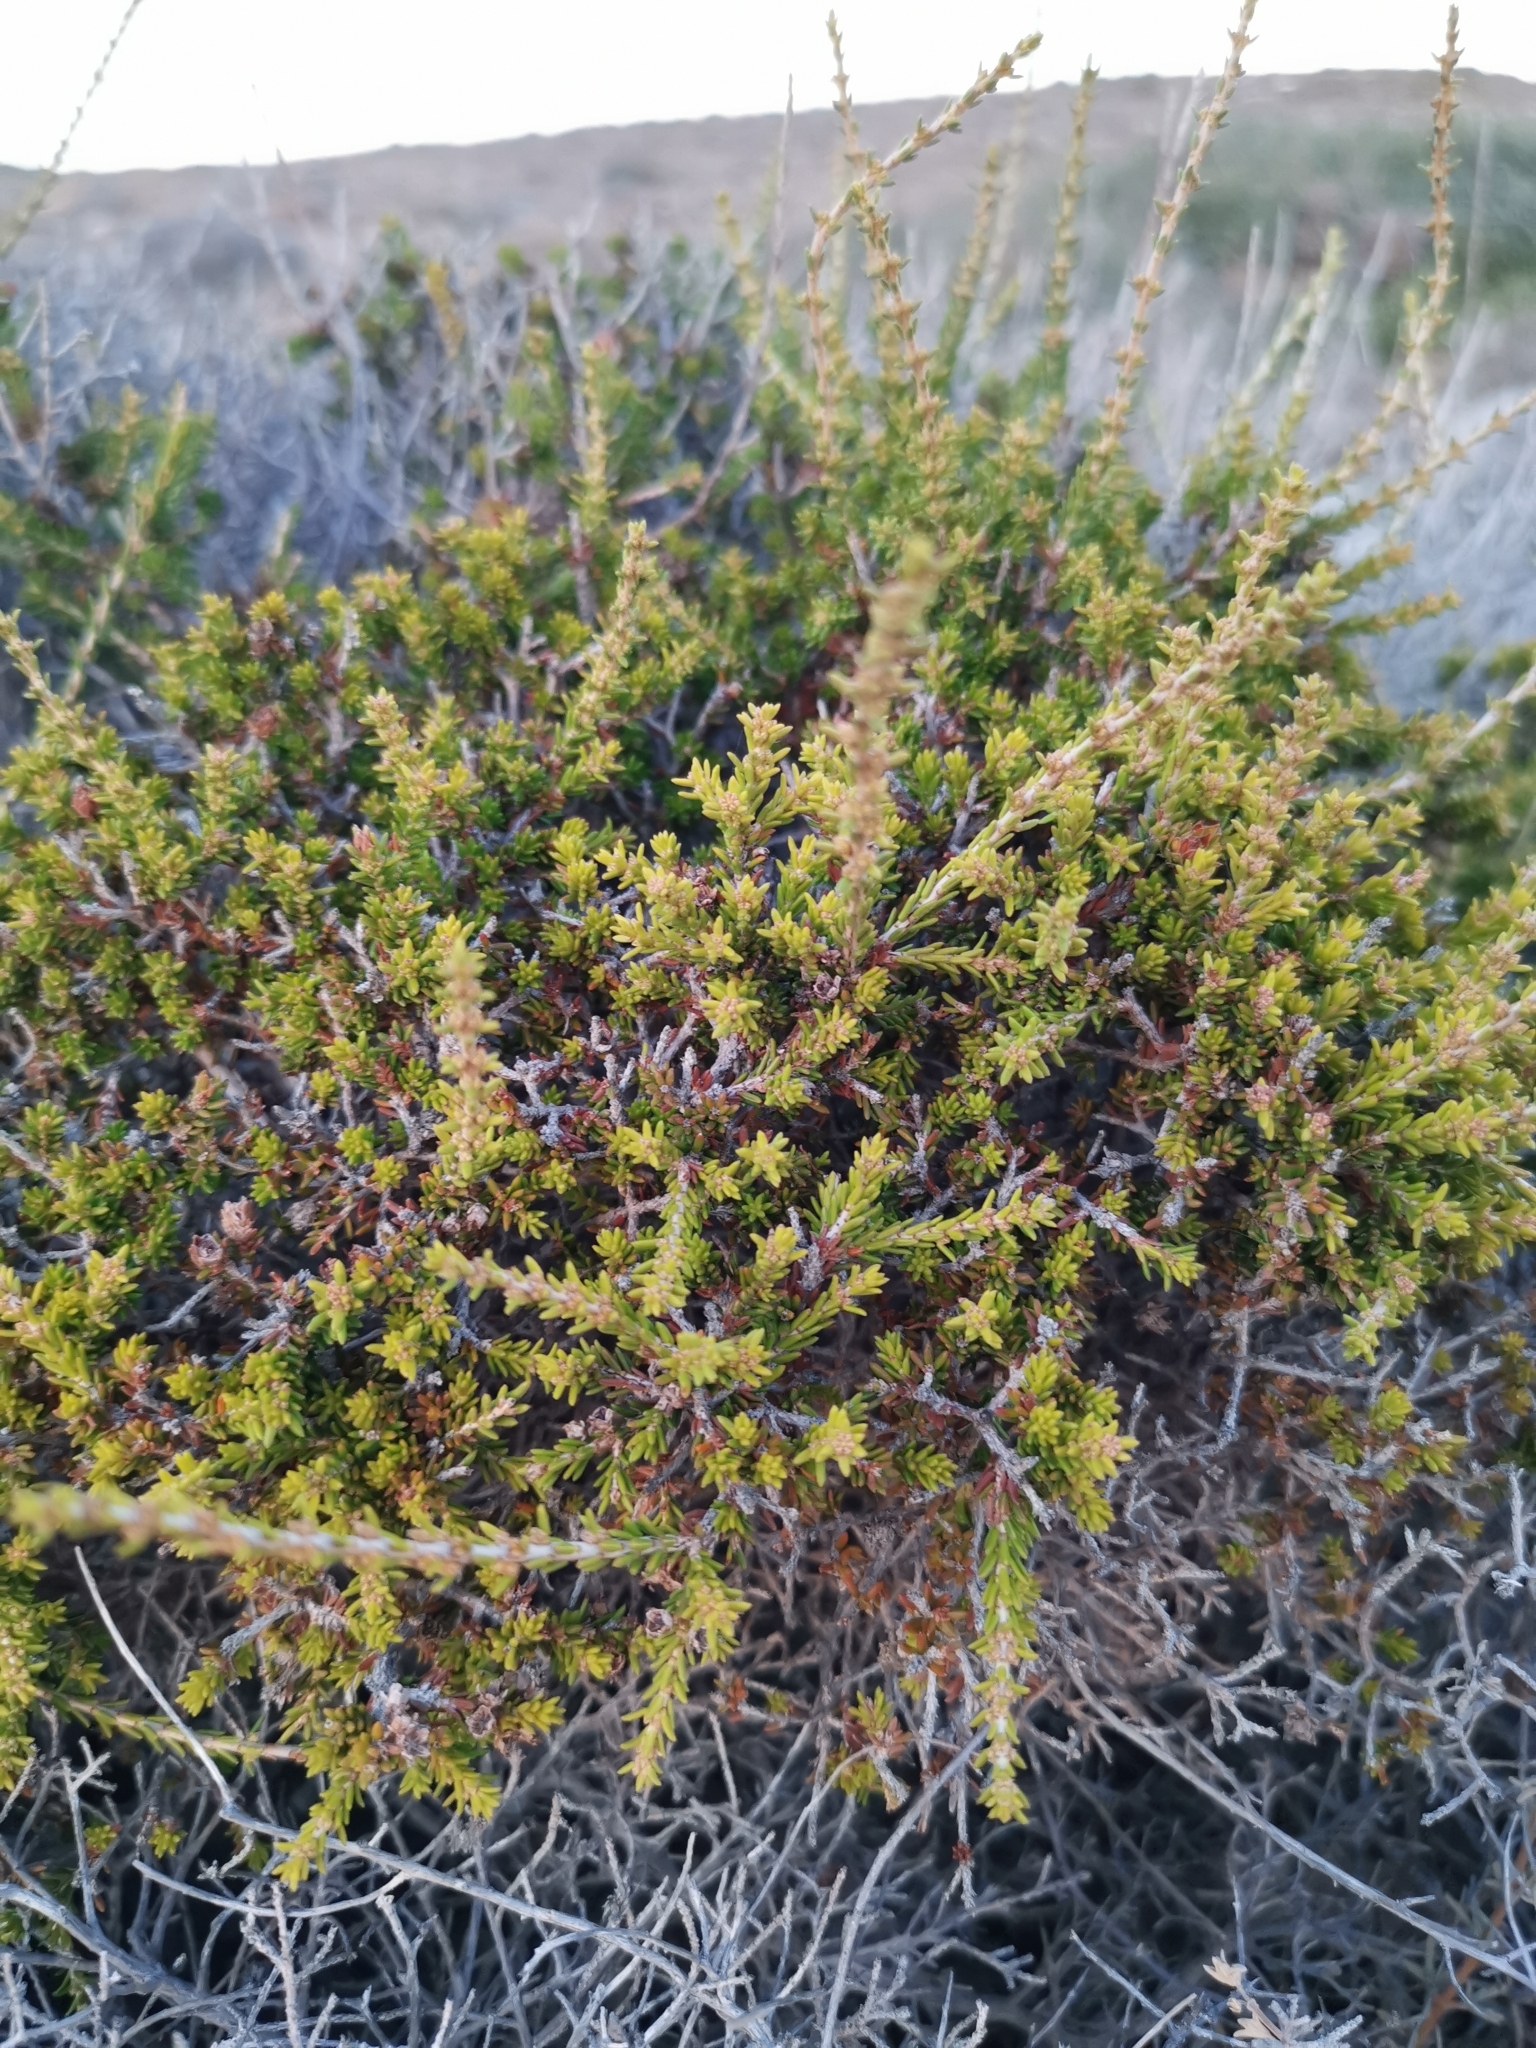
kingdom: Plantae
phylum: Tracheophyta
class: Magnoliopsida
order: Ericales
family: Ericaceae
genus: Erica
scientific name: Erica manipuliflora
